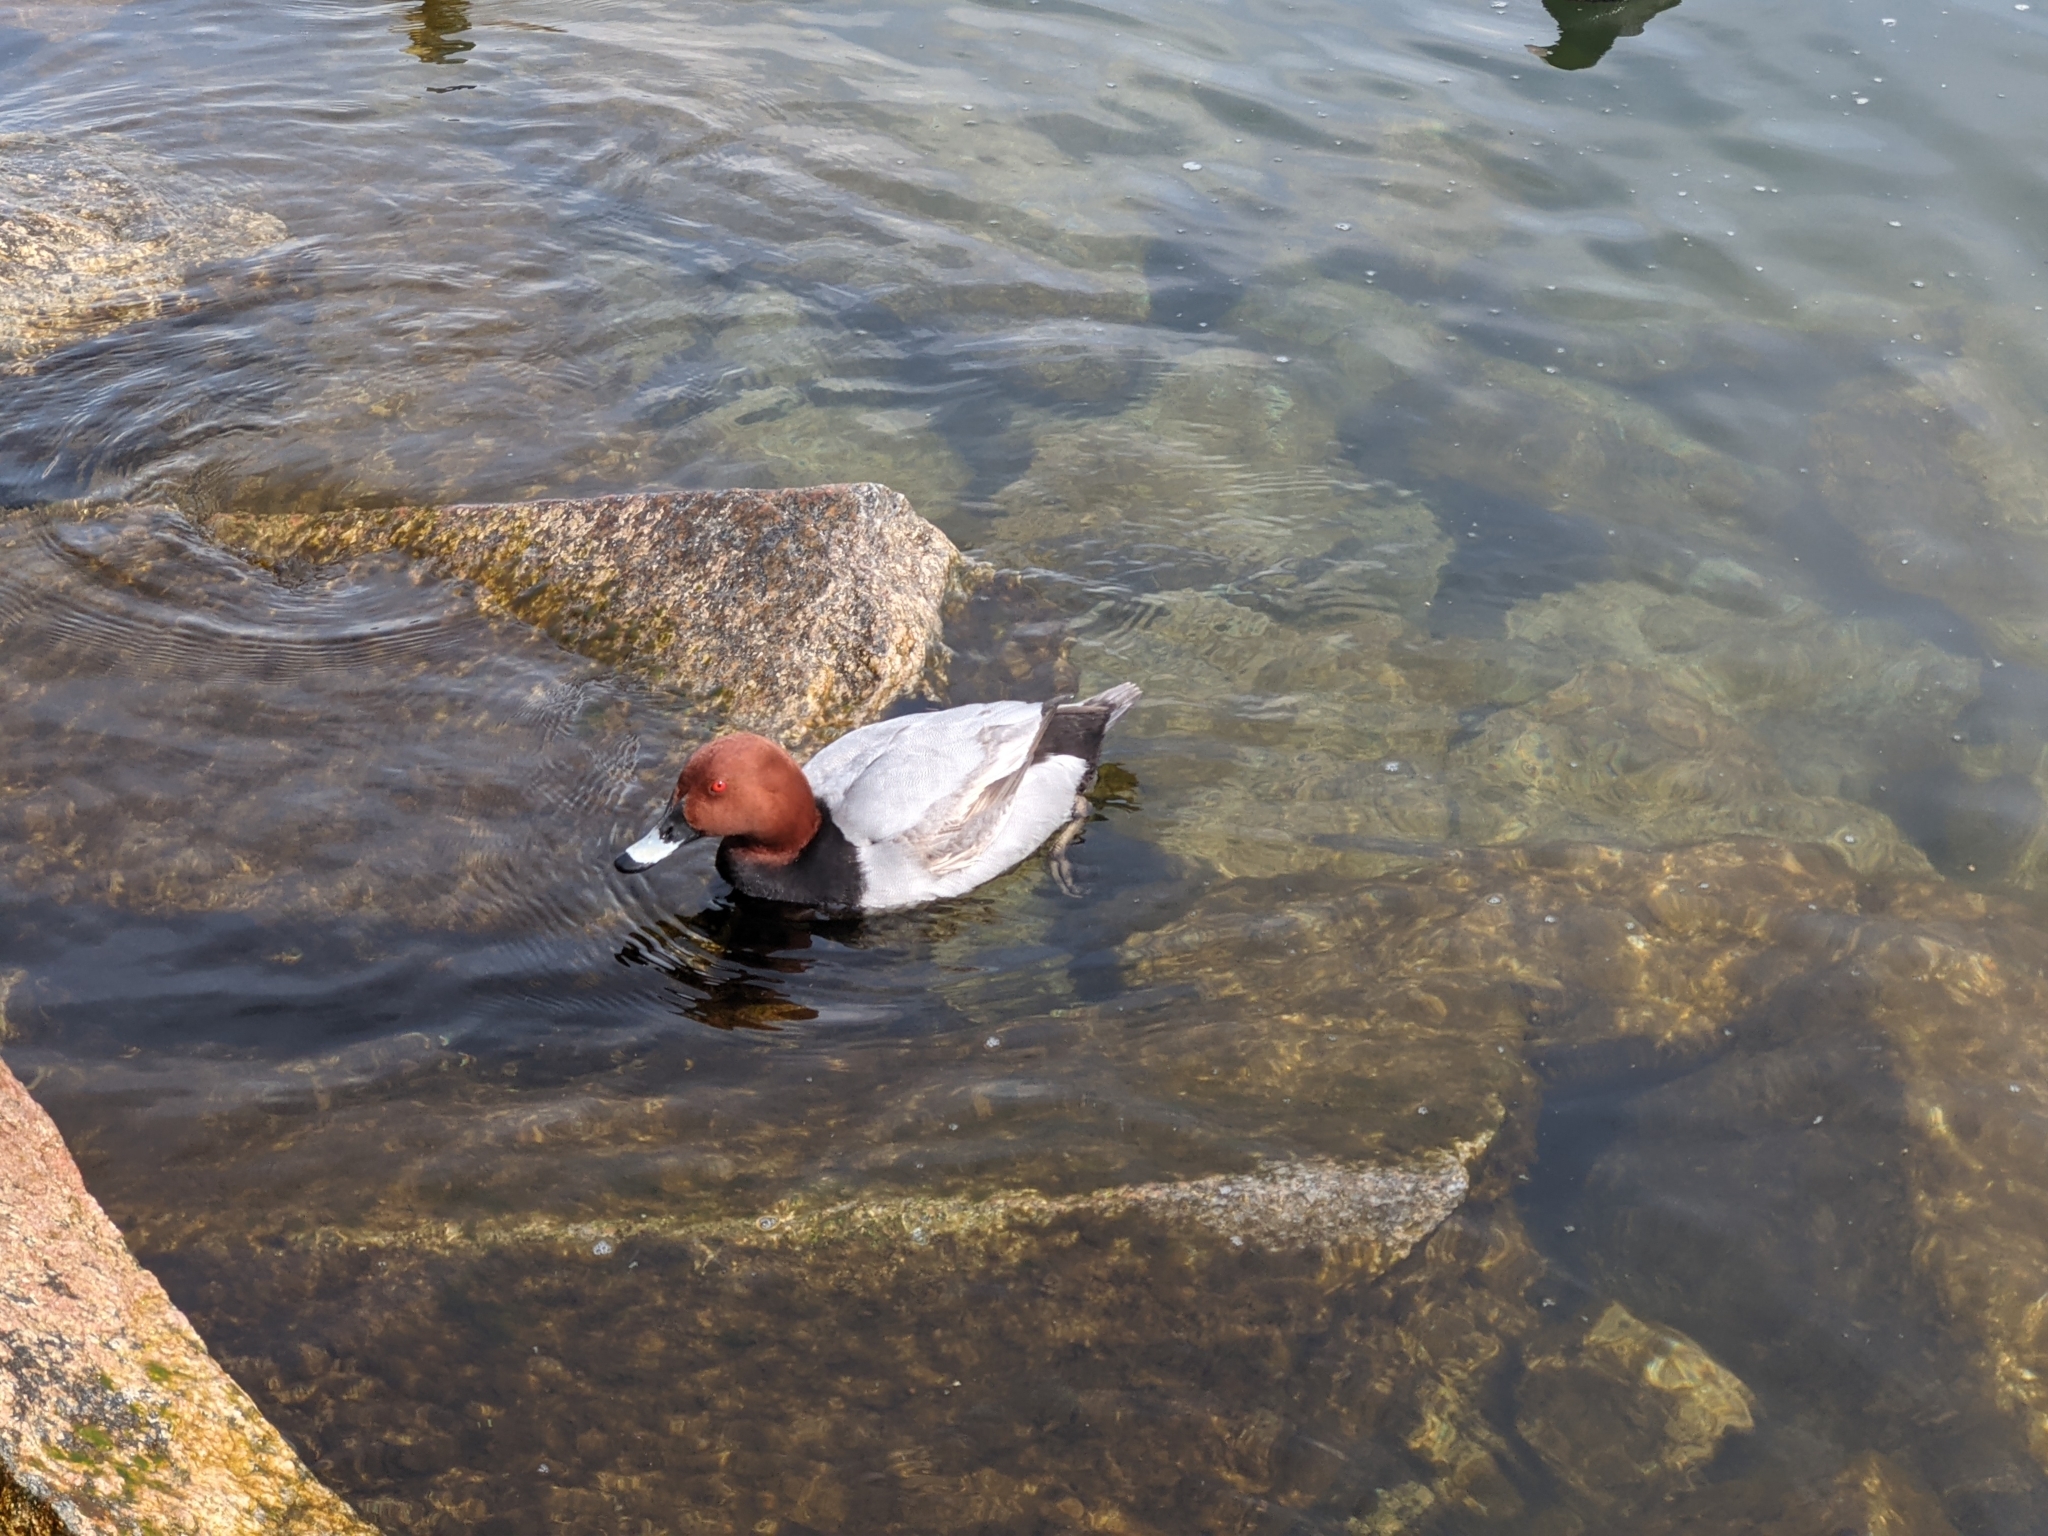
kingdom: Animalia
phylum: Chordata
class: Aves
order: Anseriformes
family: Anatidae
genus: Aythya
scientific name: Aythya ferina
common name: Common pochard
